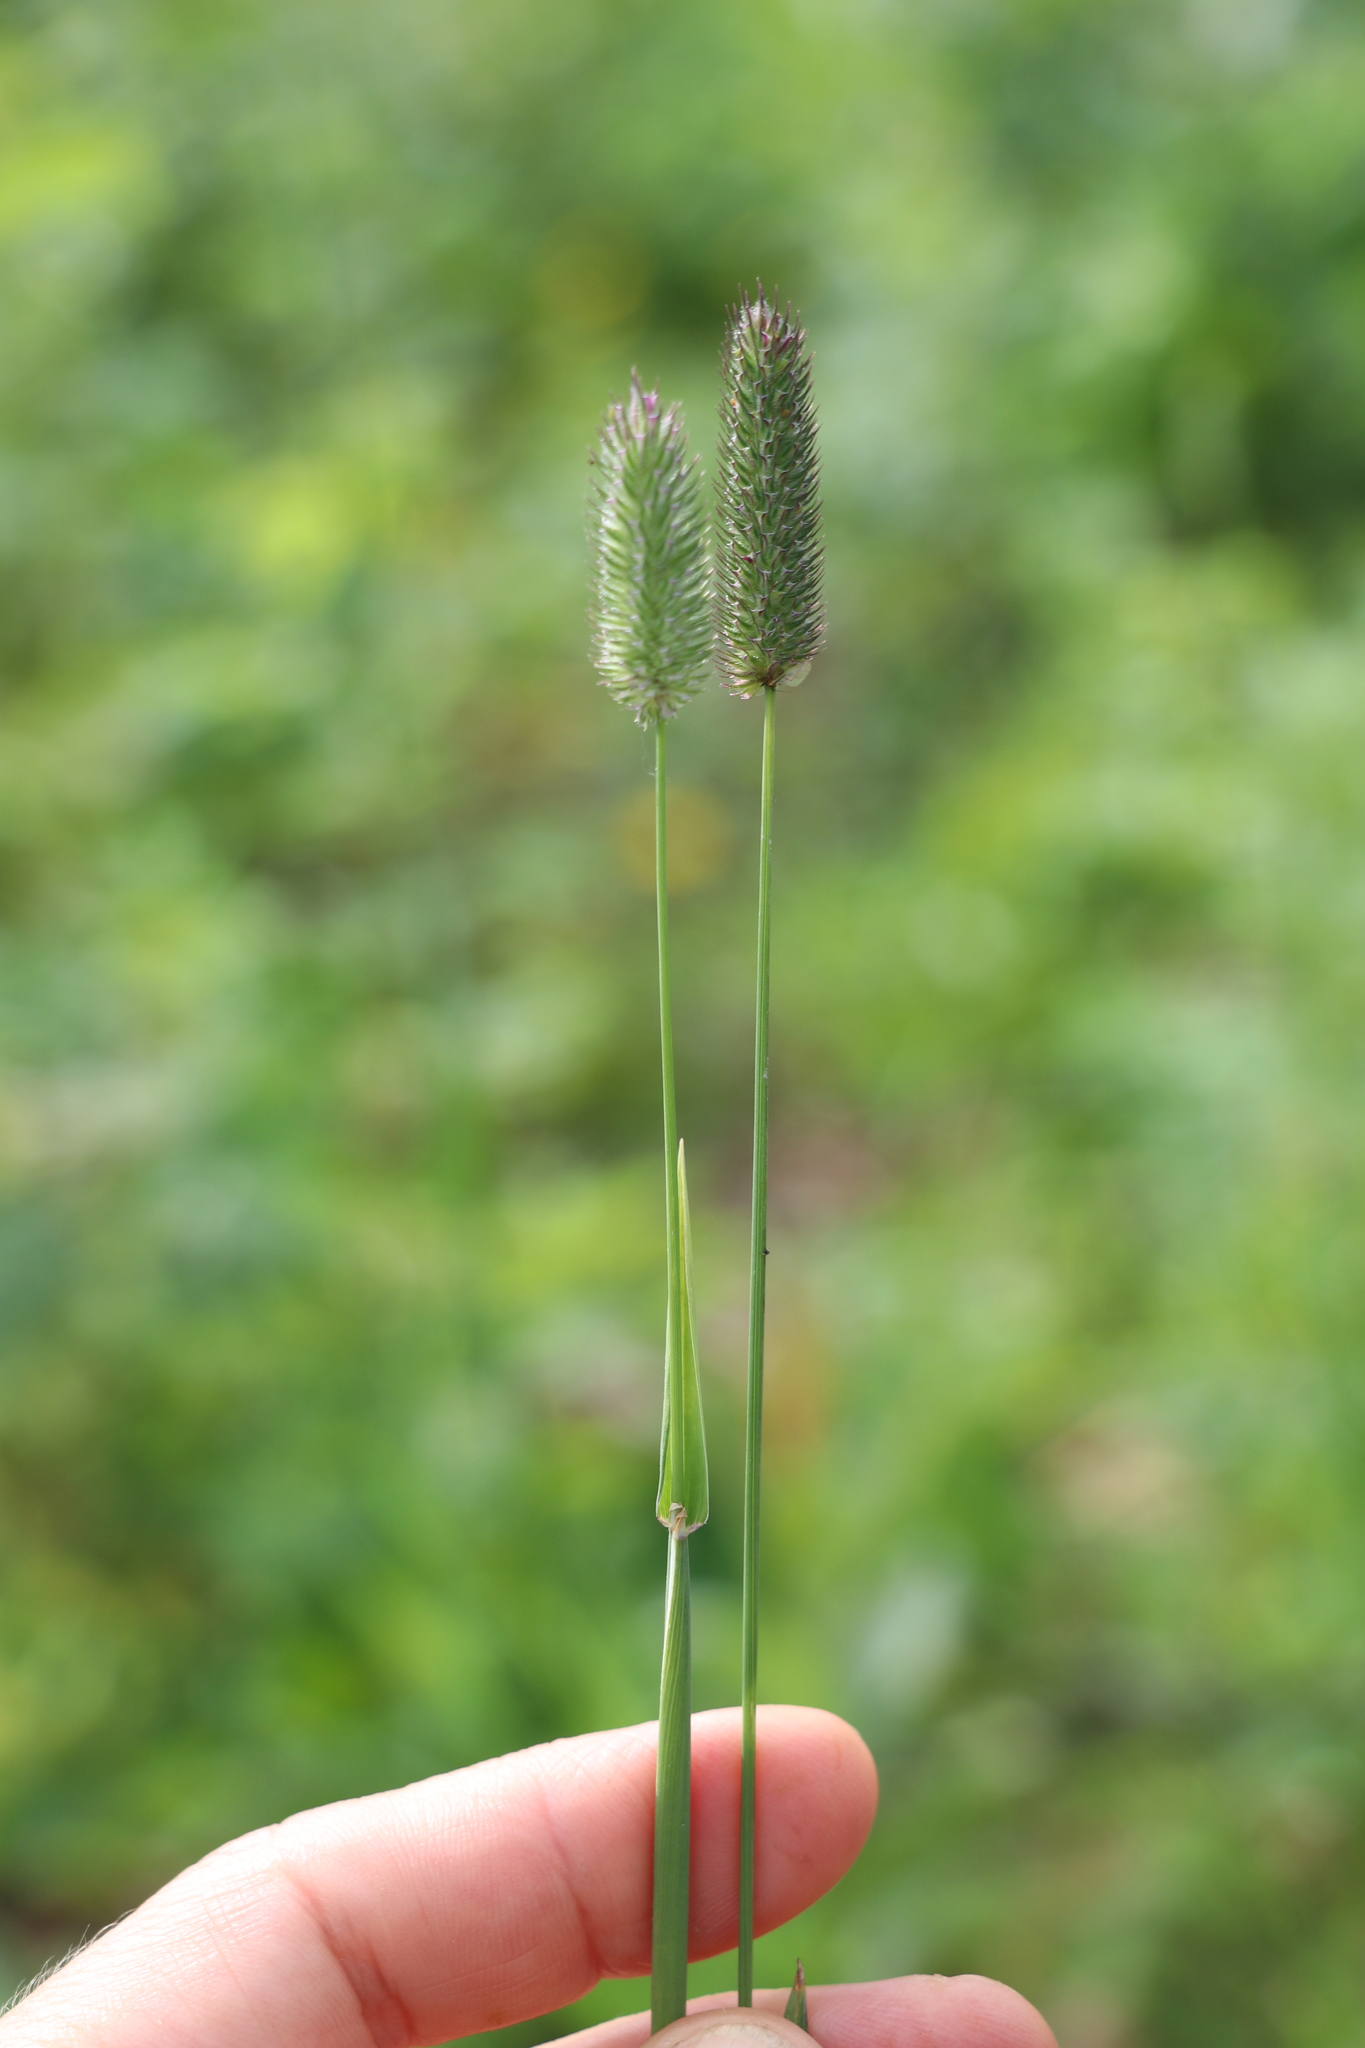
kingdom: Plantae
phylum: Tracheophyta
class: Liliopsida
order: Poales
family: Poaceae
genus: Phleum
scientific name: Phleum pratense
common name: Timothy grass
